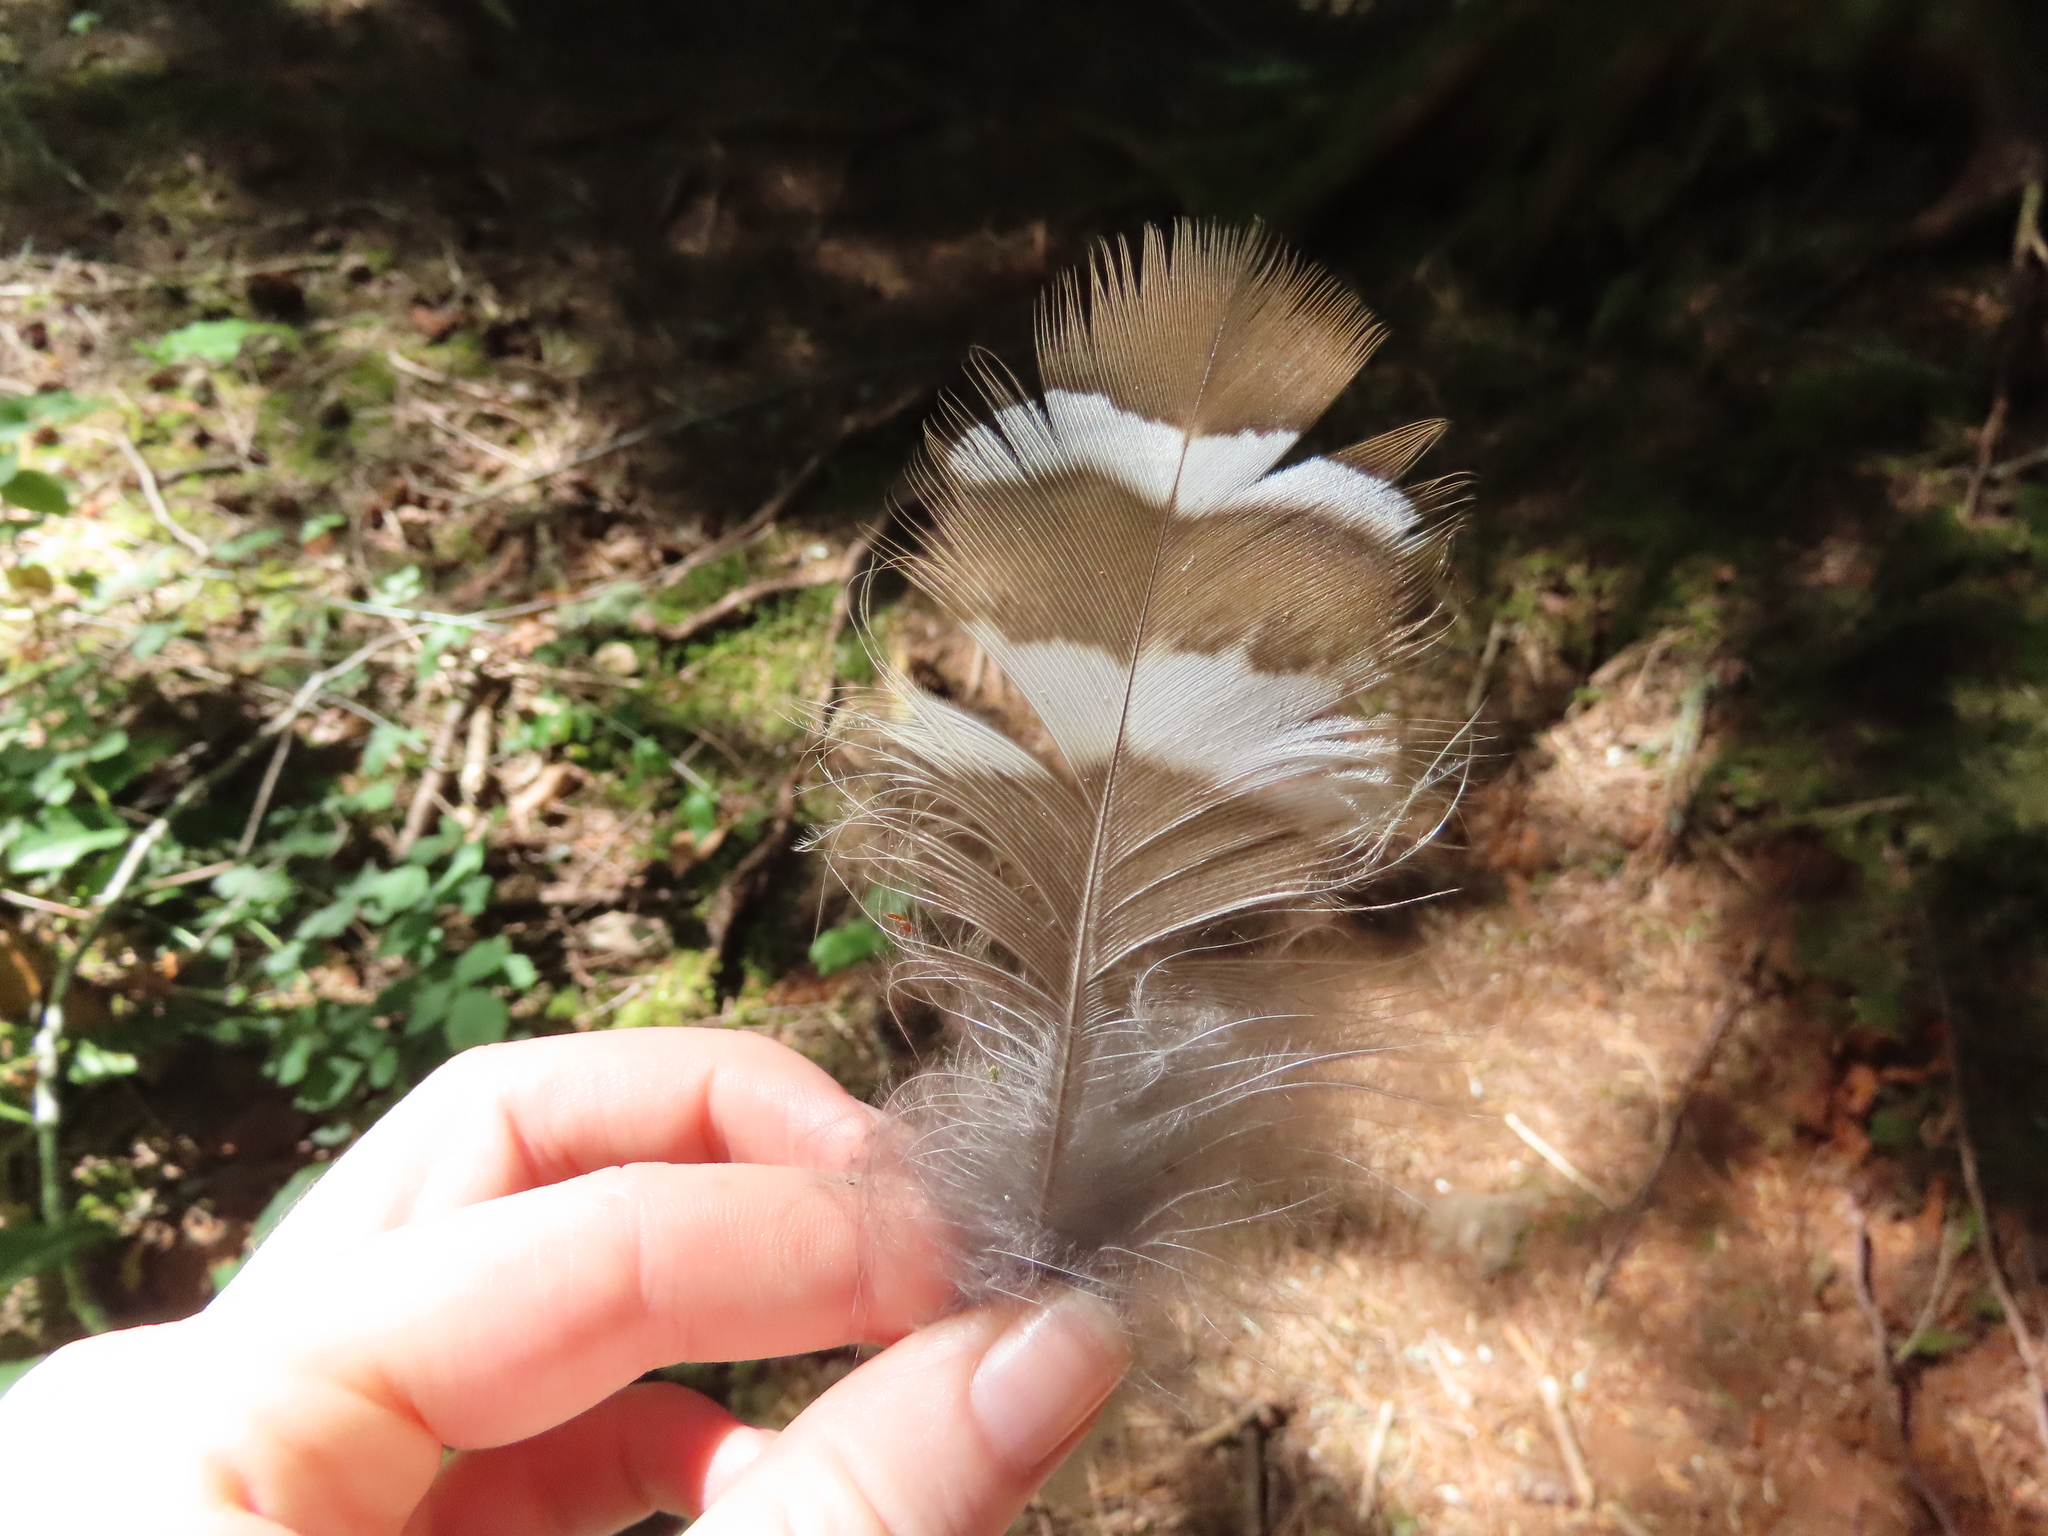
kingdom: Animalia
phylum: Chordata
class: Aves
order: Strigiformes
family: Strigidae
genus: Strix
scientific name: Strix varia
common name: Barred owl
